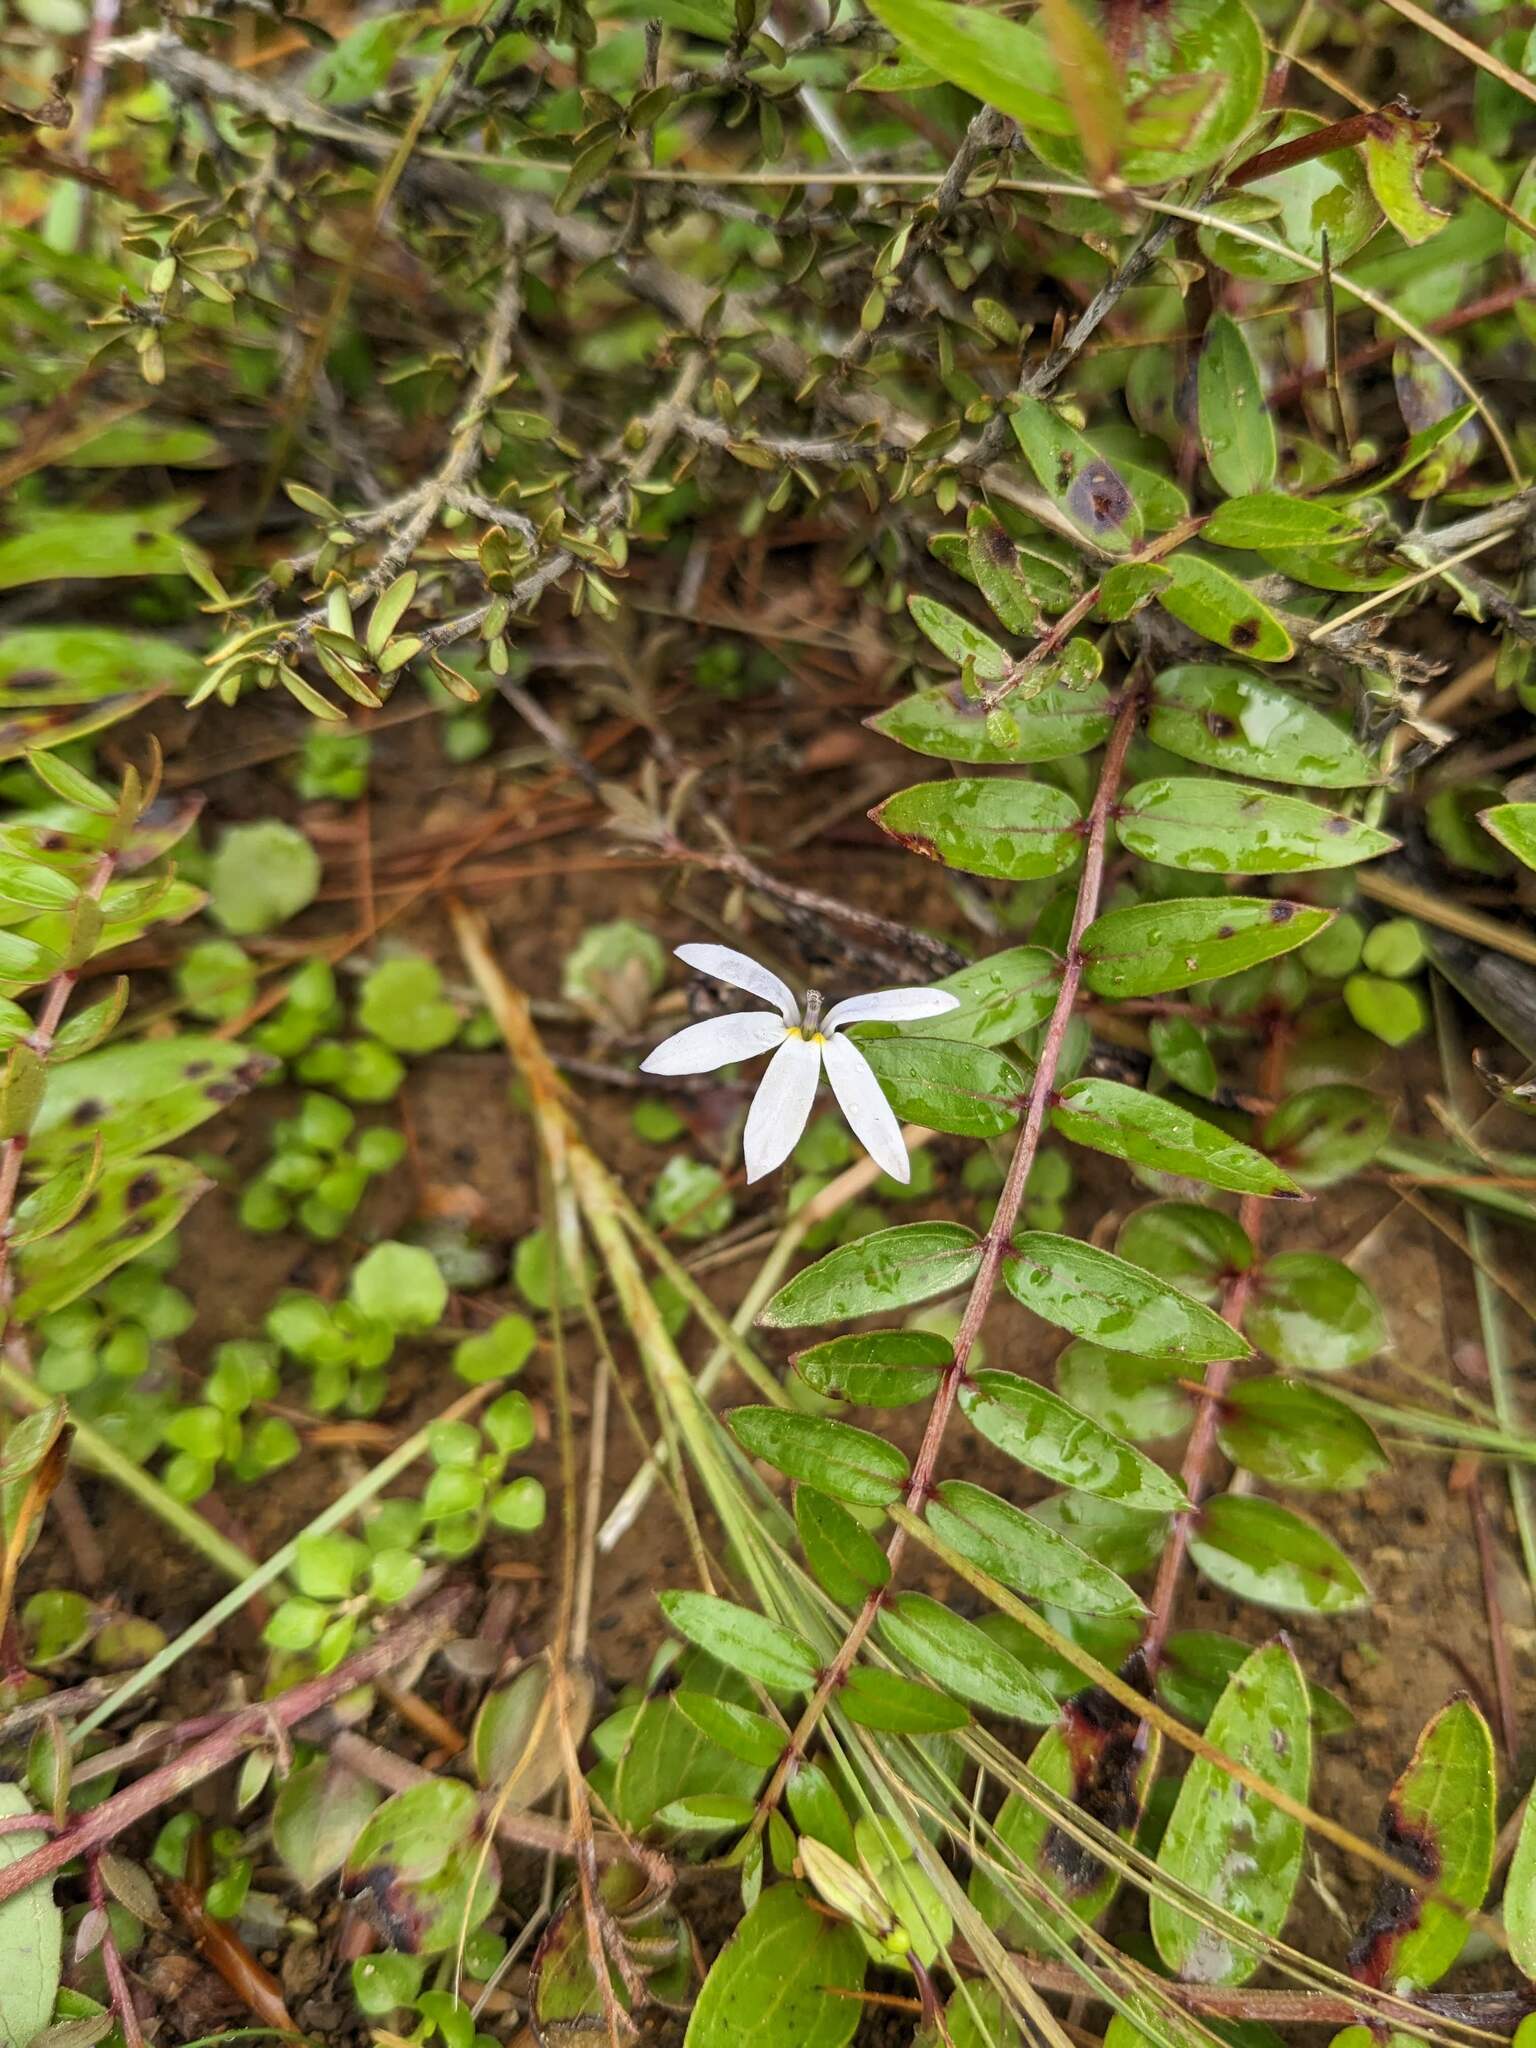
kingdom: Plantae
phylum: Tracheophyta
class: Magnoliopsida
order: Asterales
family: Campanulaceae
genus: Lobelia
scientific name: Lobelia angulata
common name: Lawn lobelia
